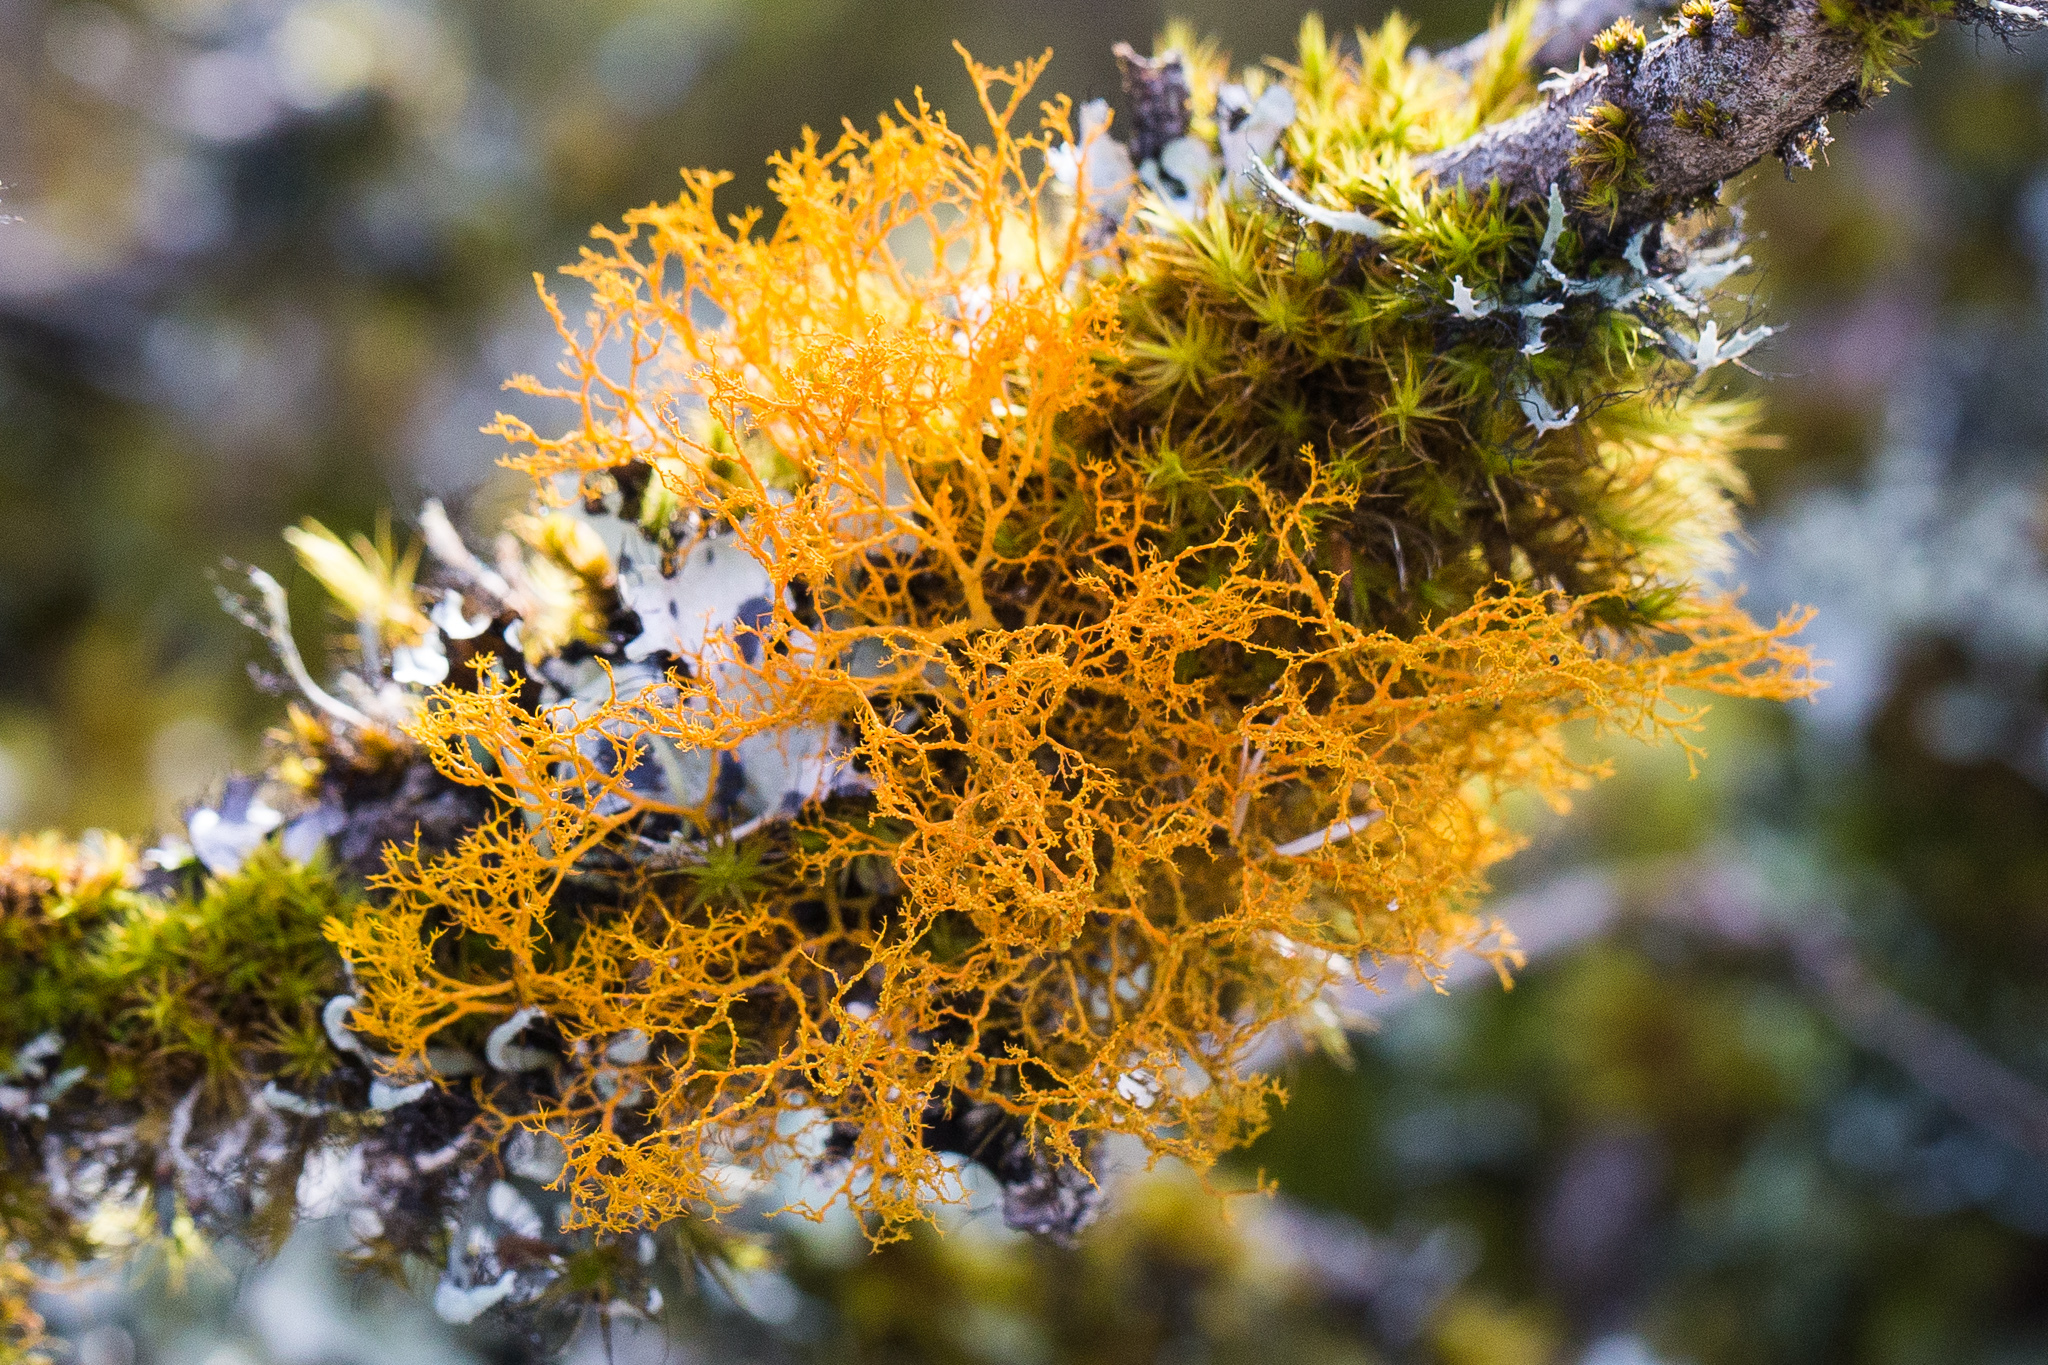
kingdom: Fungi
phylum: Ascomycota
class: Lecanoromycetes
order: Teloschistales
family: Teloschistaceae
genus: Teloschistes
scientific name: Teloschistes flavicans
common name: Golden hair-lichen
